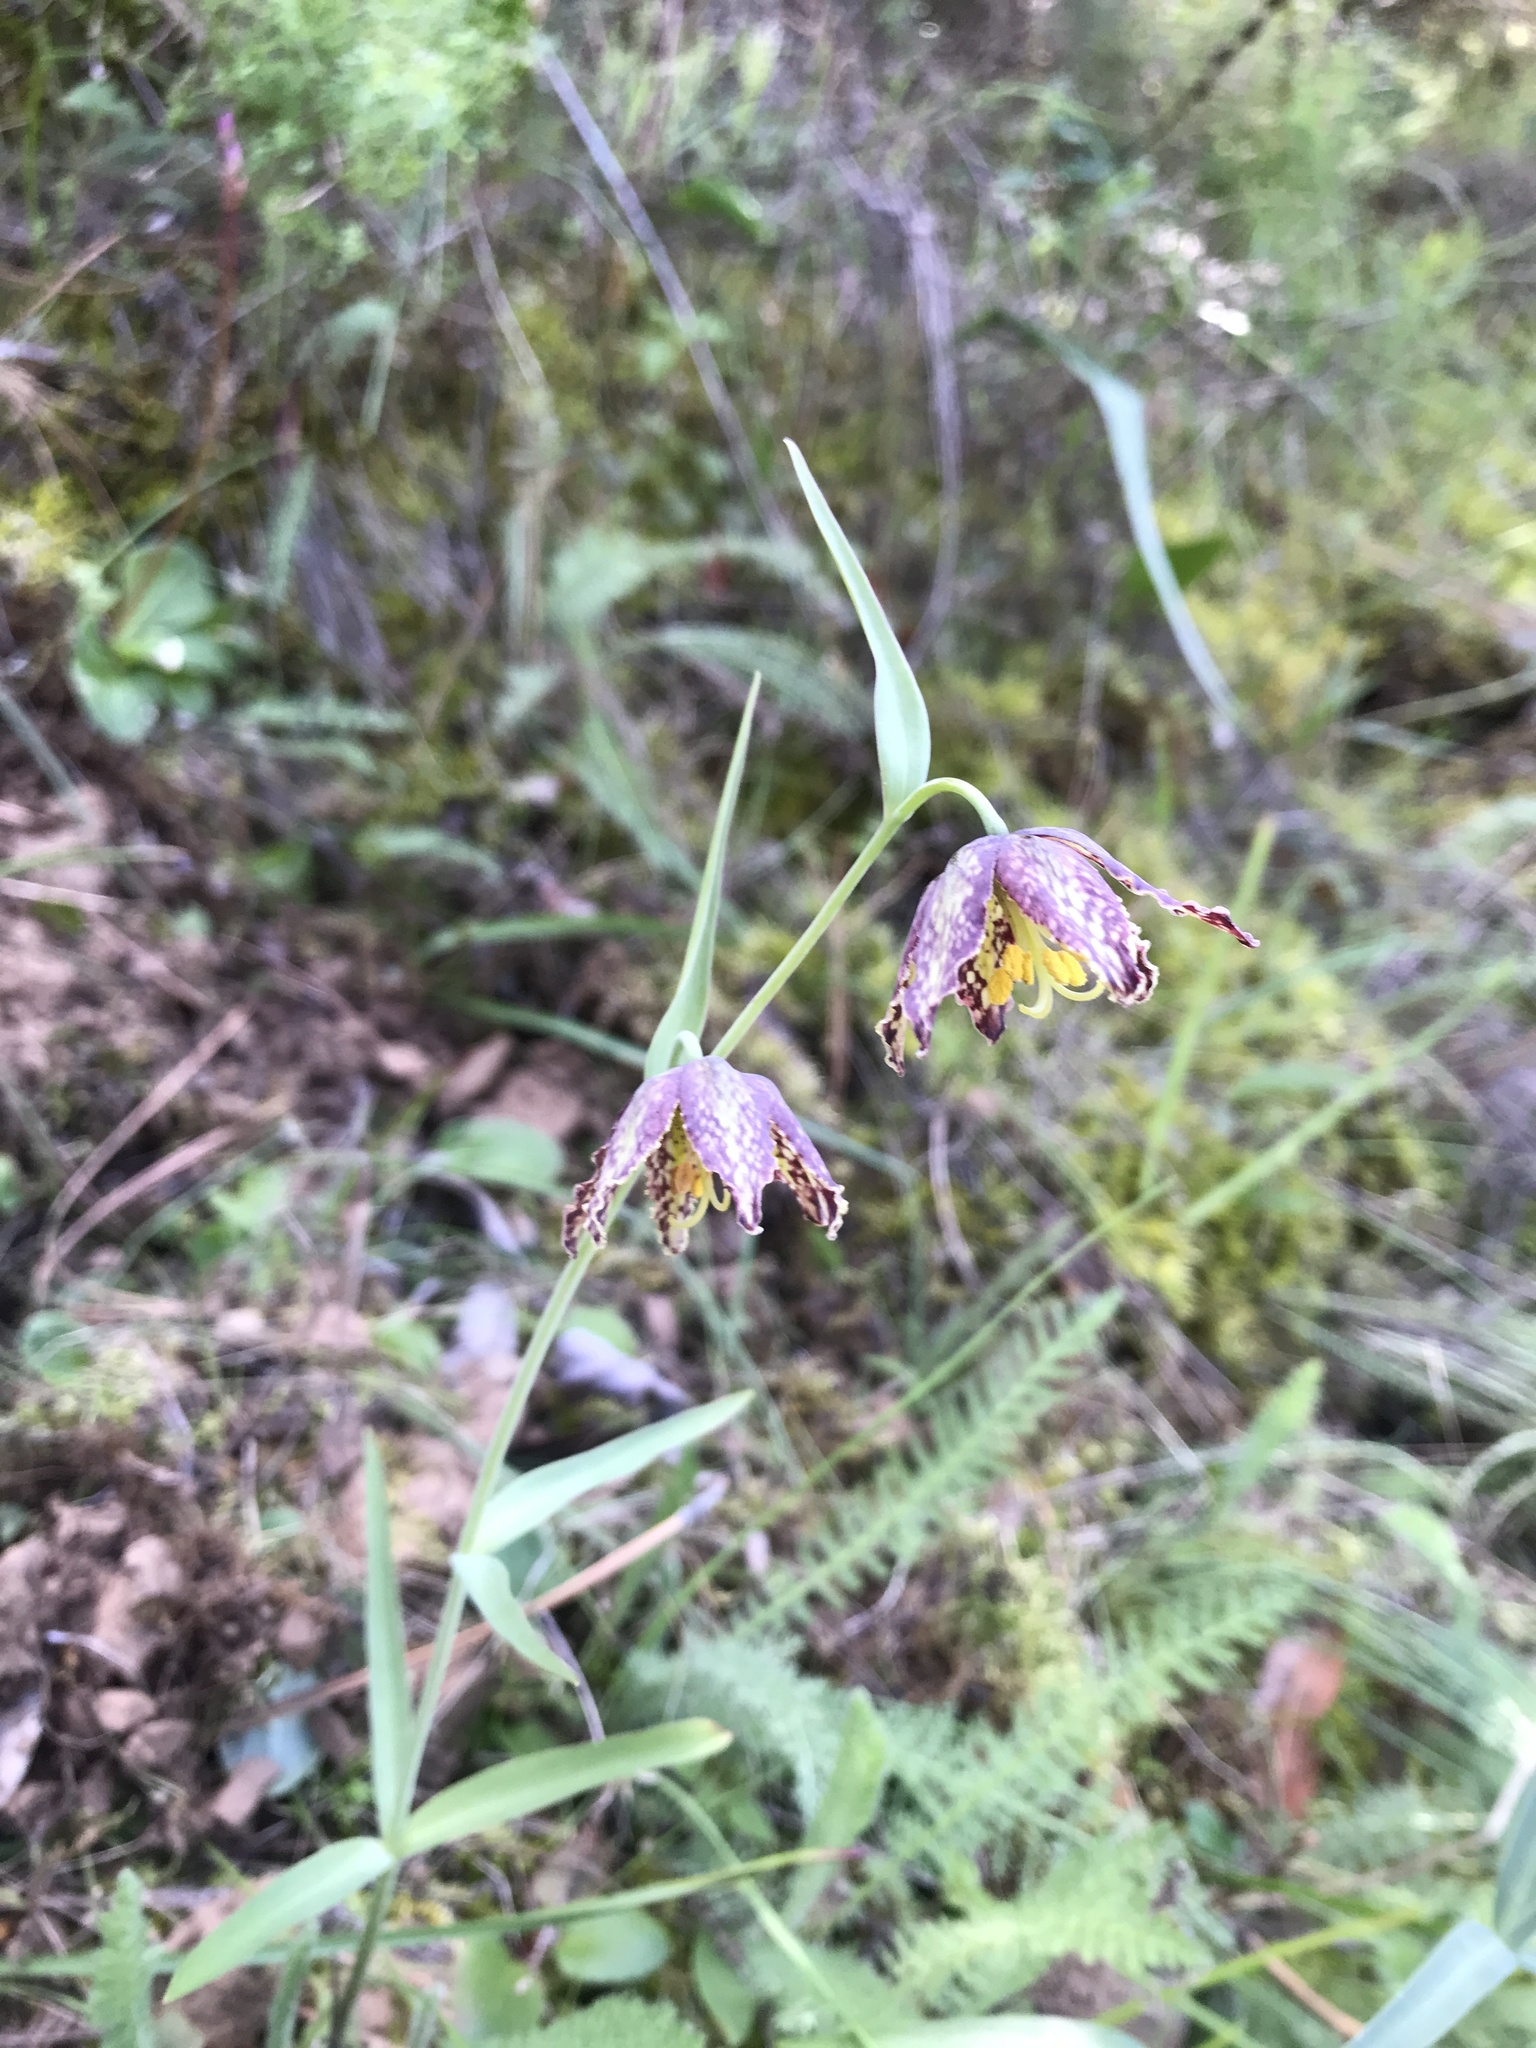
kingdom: Plantae
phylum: Tracheophyta
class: Liliopsida
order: Liliales
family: Liliaceae
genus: Fritillaria
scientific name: Fritillaria affinis
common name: Ojai fritillary
